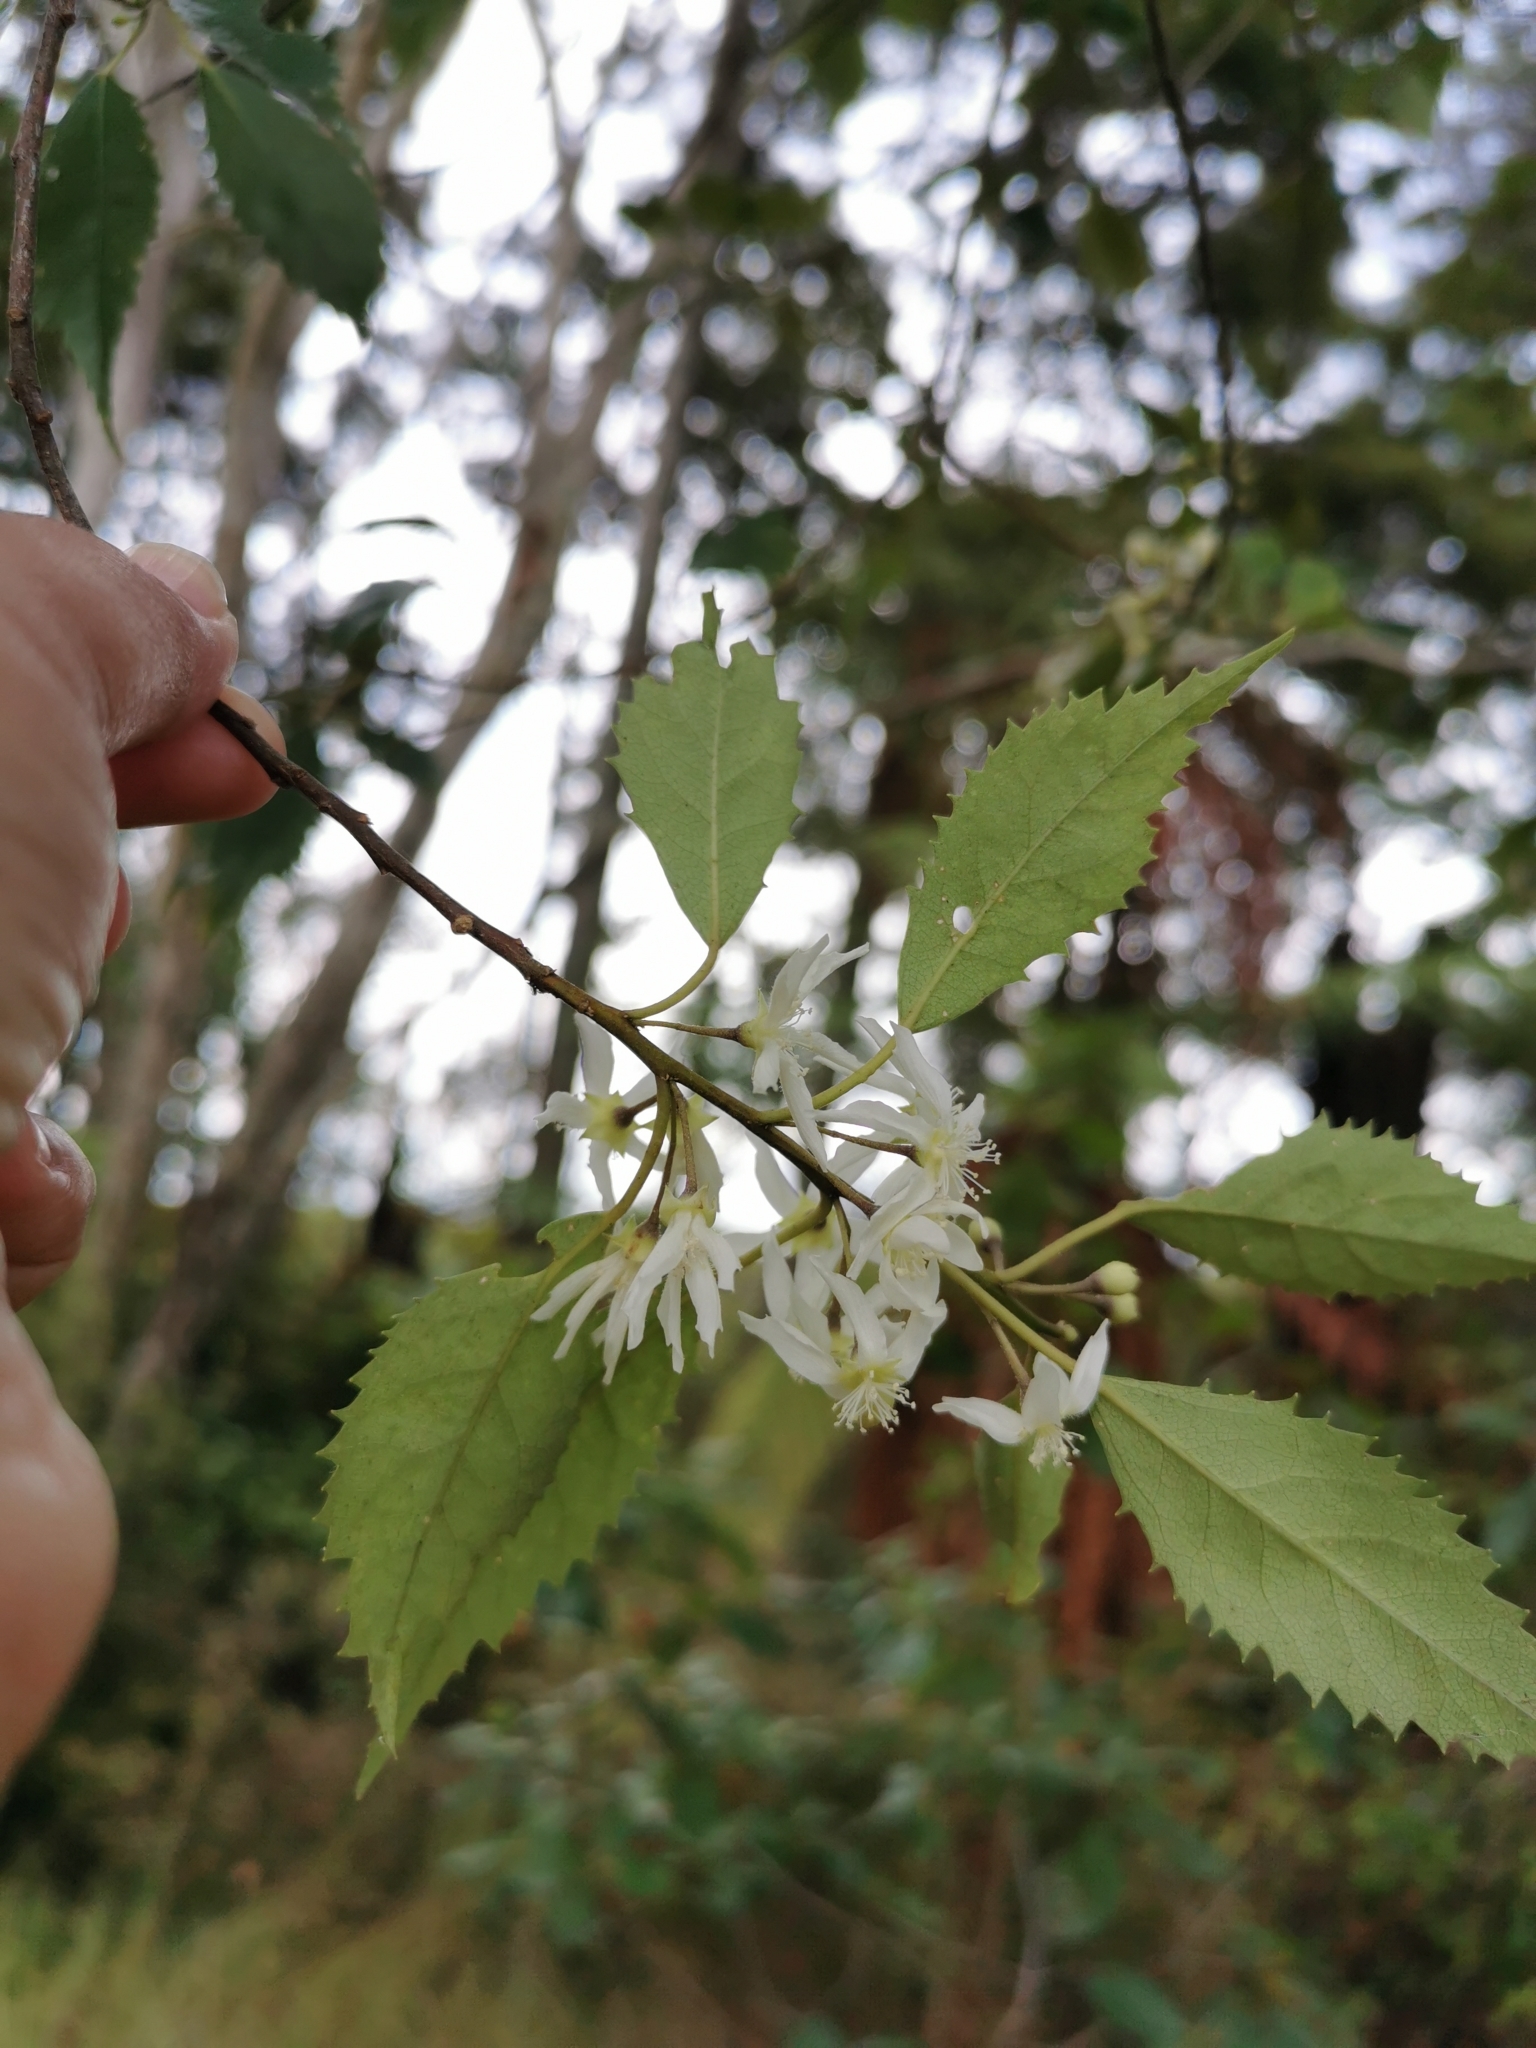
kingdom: Plantae
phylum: Tracheophyta
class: Magnoliopsida
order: Malvales
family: Malvaceae
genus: Hoheria
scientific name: Hoheria sexstylosa
